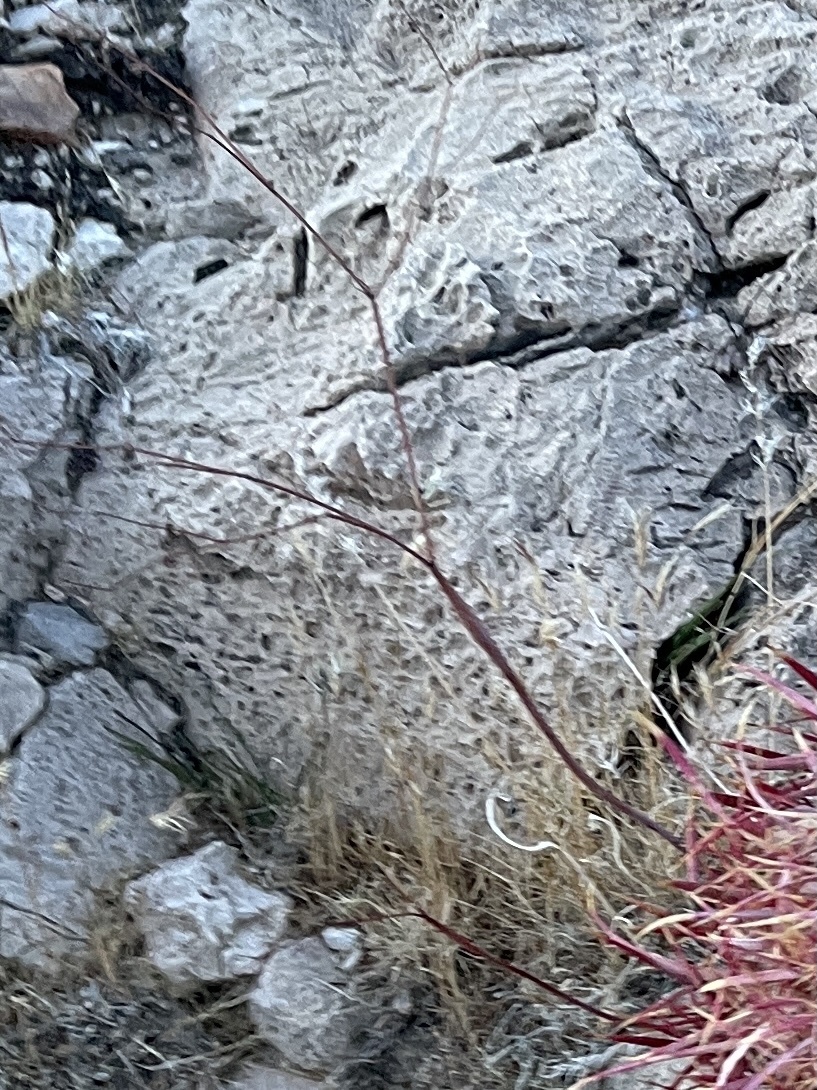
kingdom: Plantae
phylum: Tracheophyta
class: Magnoliopsida
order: Caryophyllales
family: Polygonaceae
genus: Eriogonum
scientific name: Eriogonum inflatum
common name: Desert trumpet
